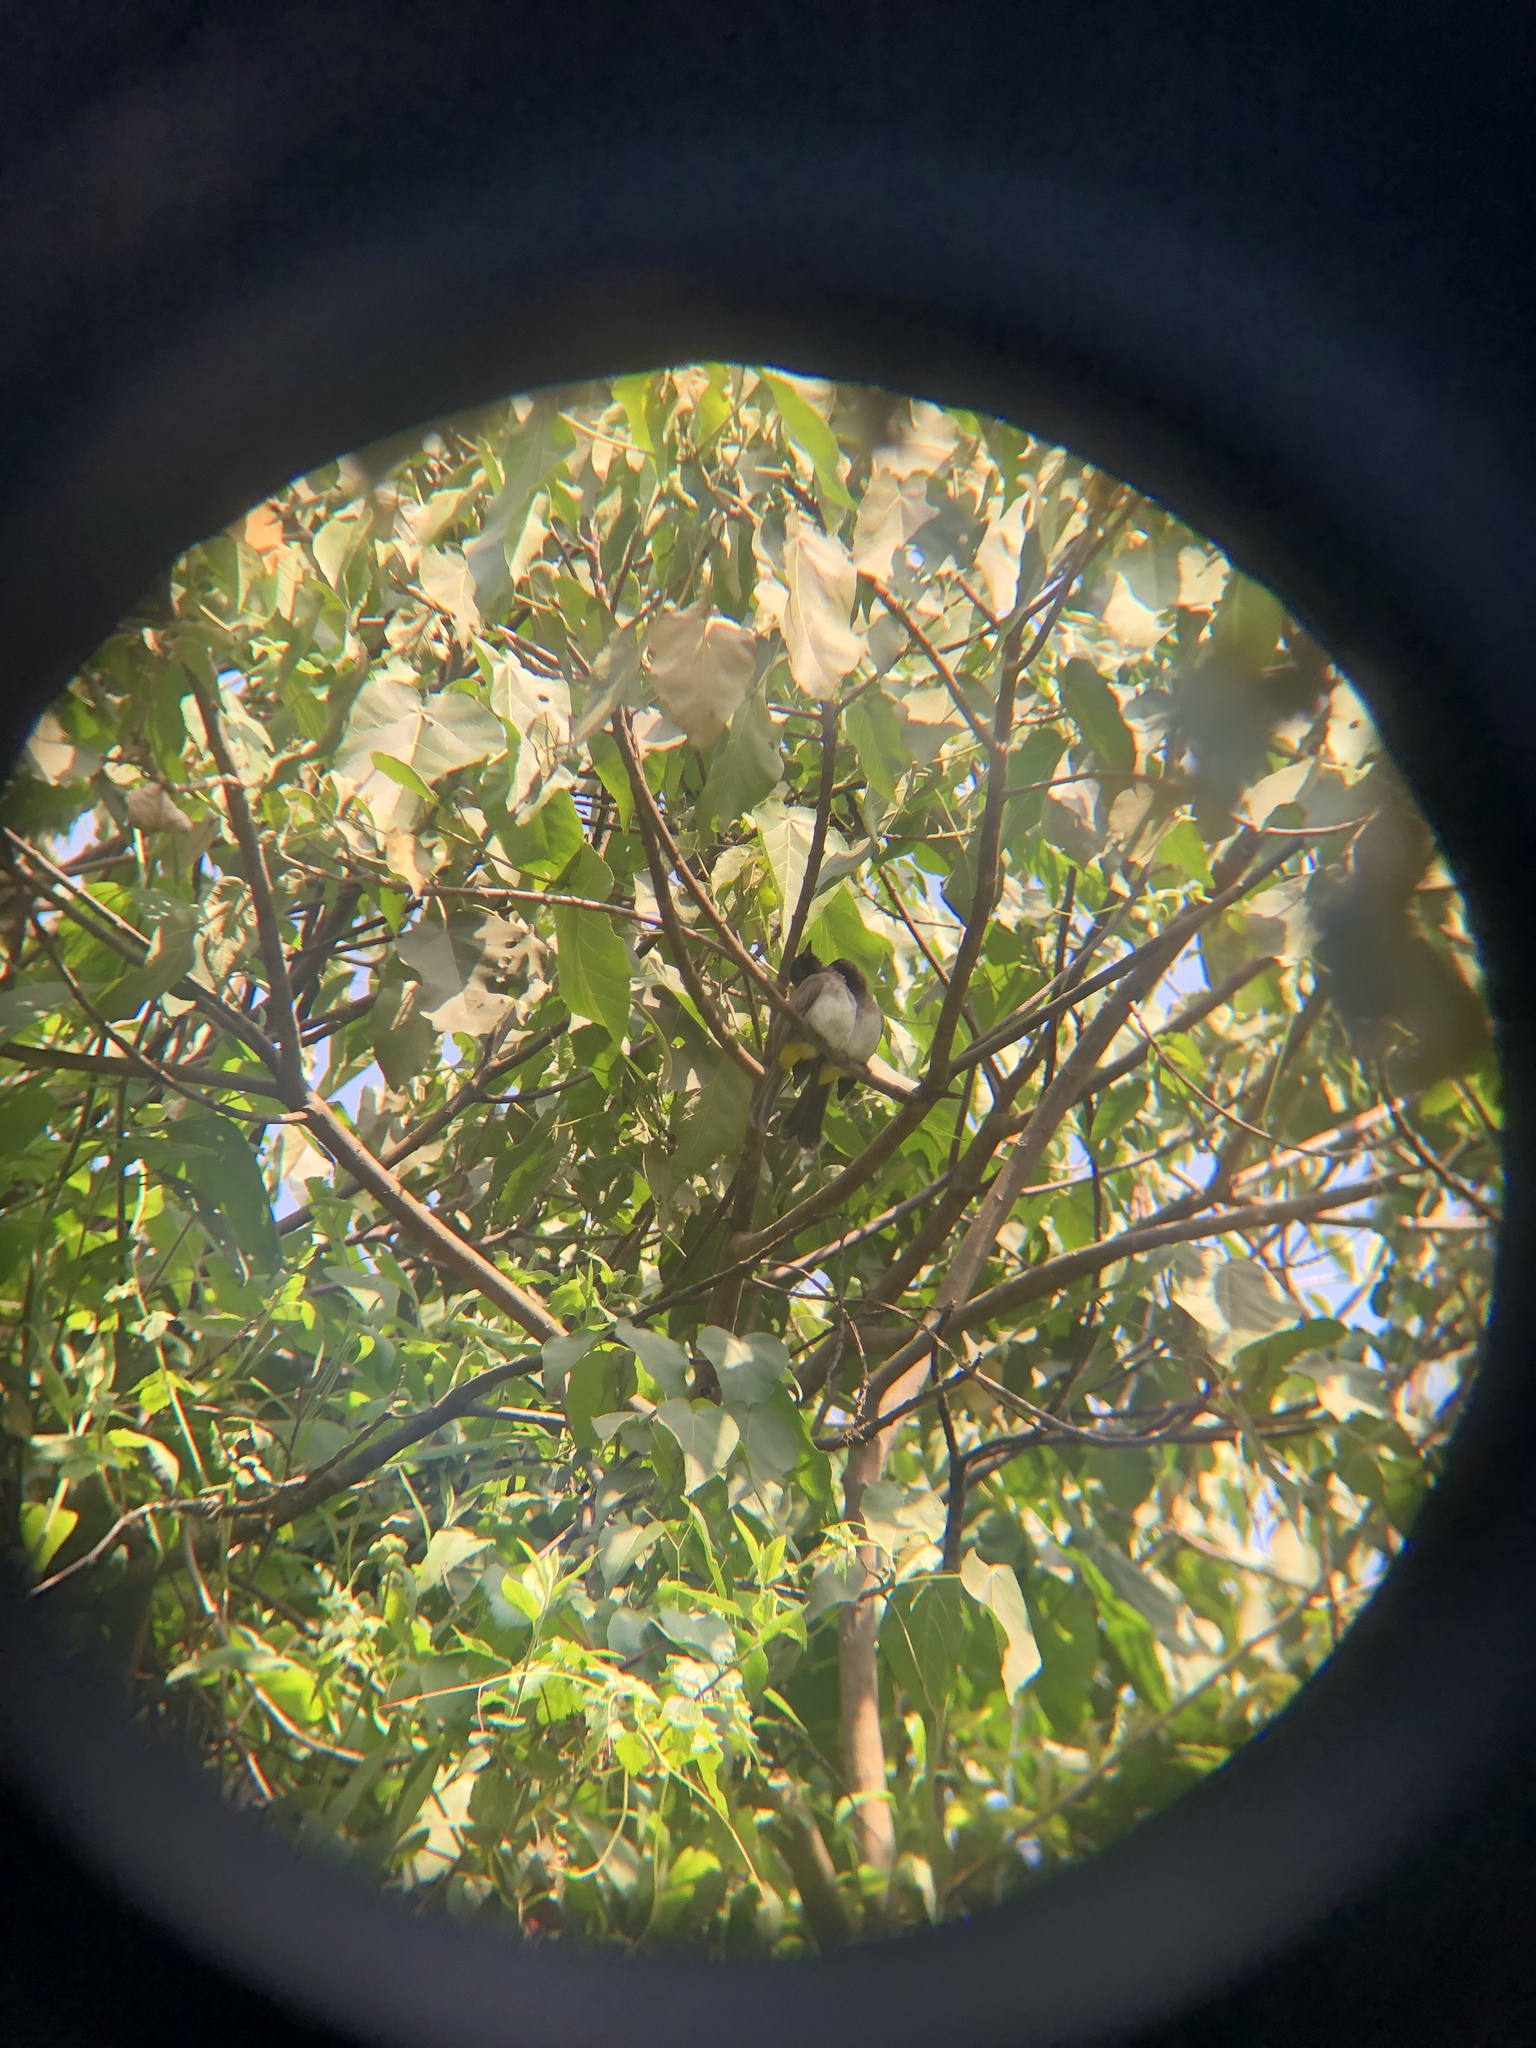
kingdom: Animalia
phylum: Chordata
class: Aves
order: Passeriformes
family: Pycnonotidae
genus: Pycnonotus
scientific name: Pycnonotus barbatus
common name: Common bulbul
